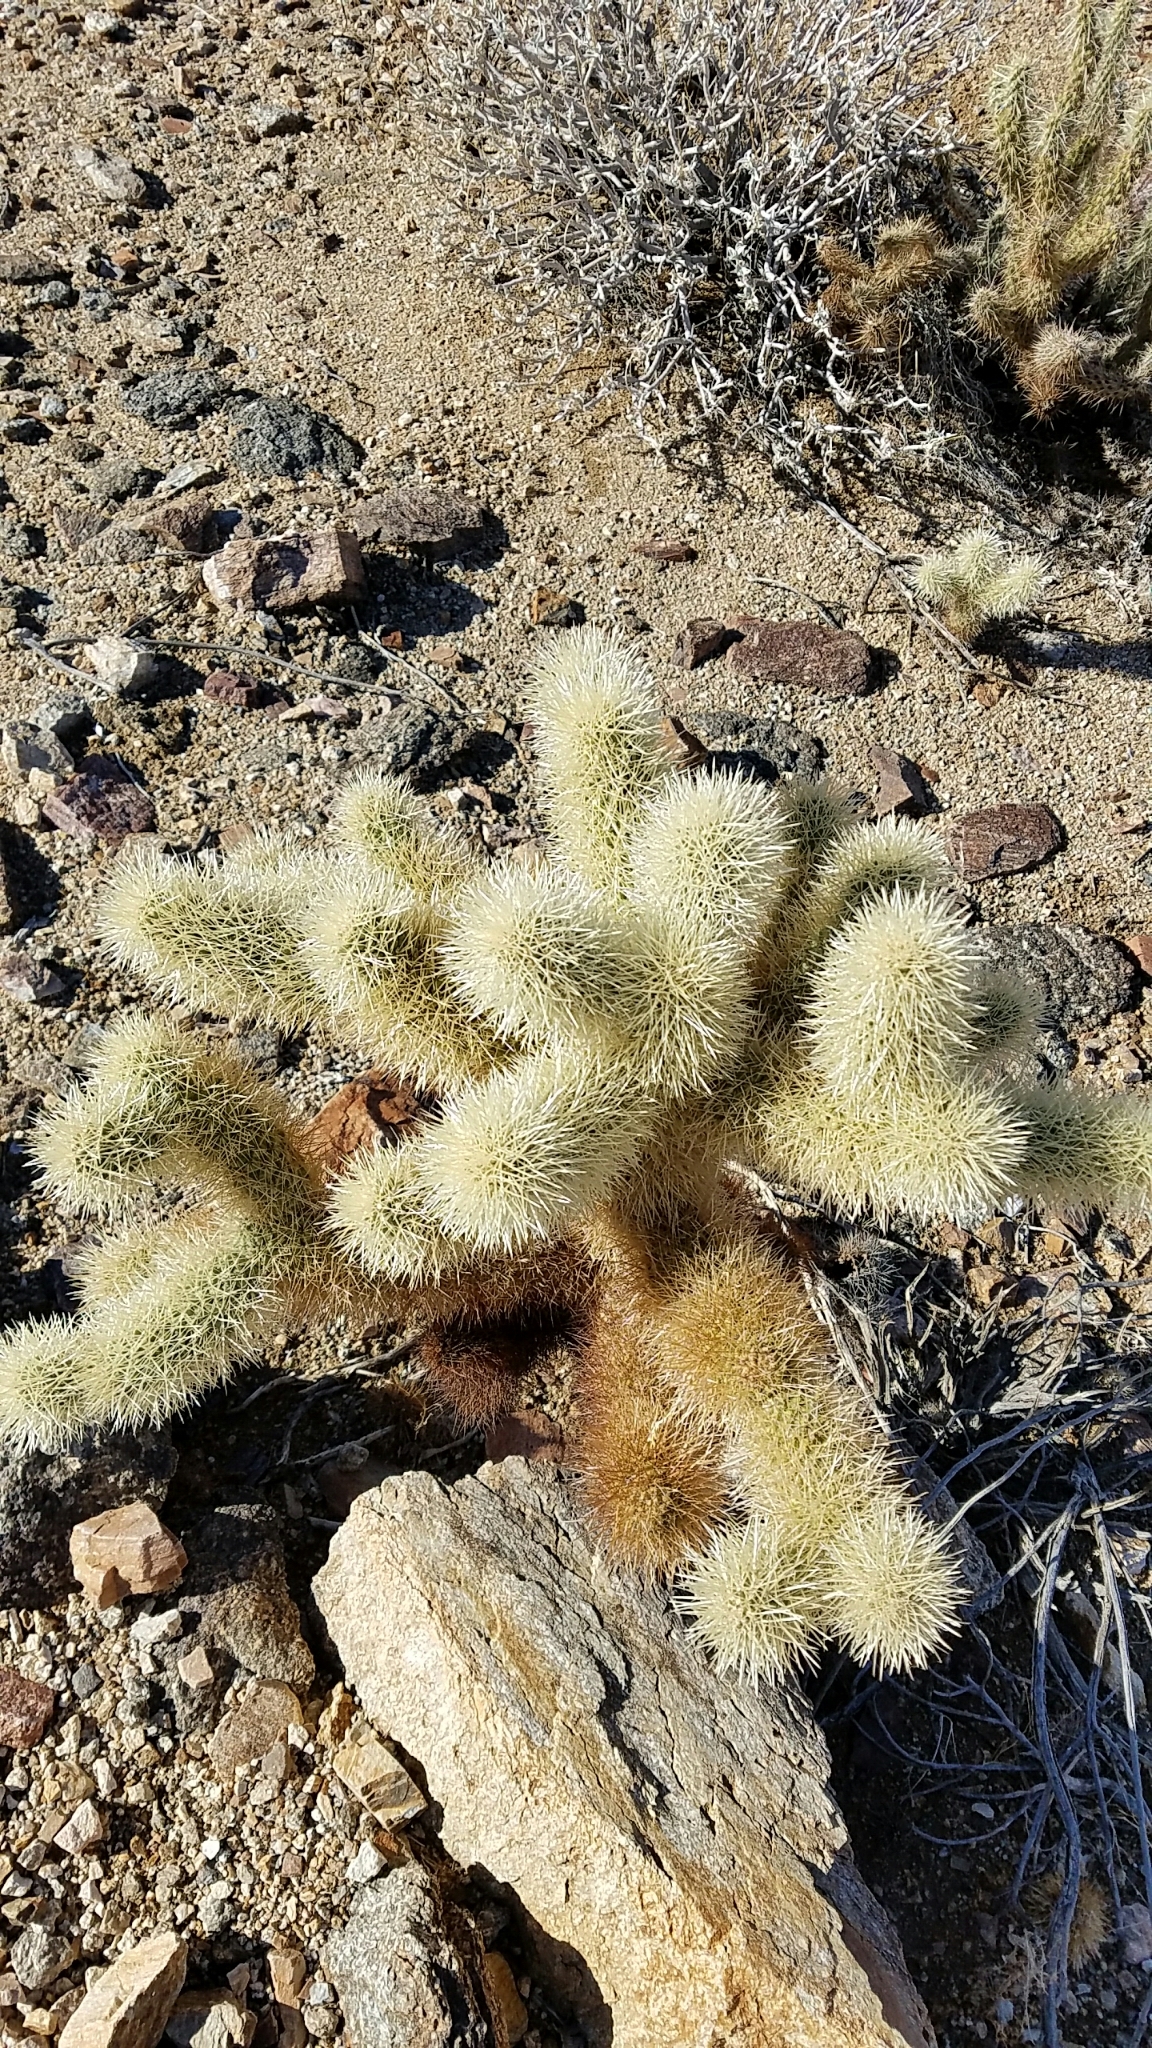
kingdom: Plantae
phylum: Tracheophyta
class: Magnoliopsida
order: Caryophyllales
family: Cactaceae
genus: Cylindropuntia
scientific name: Cylindropuntia fosbergii
